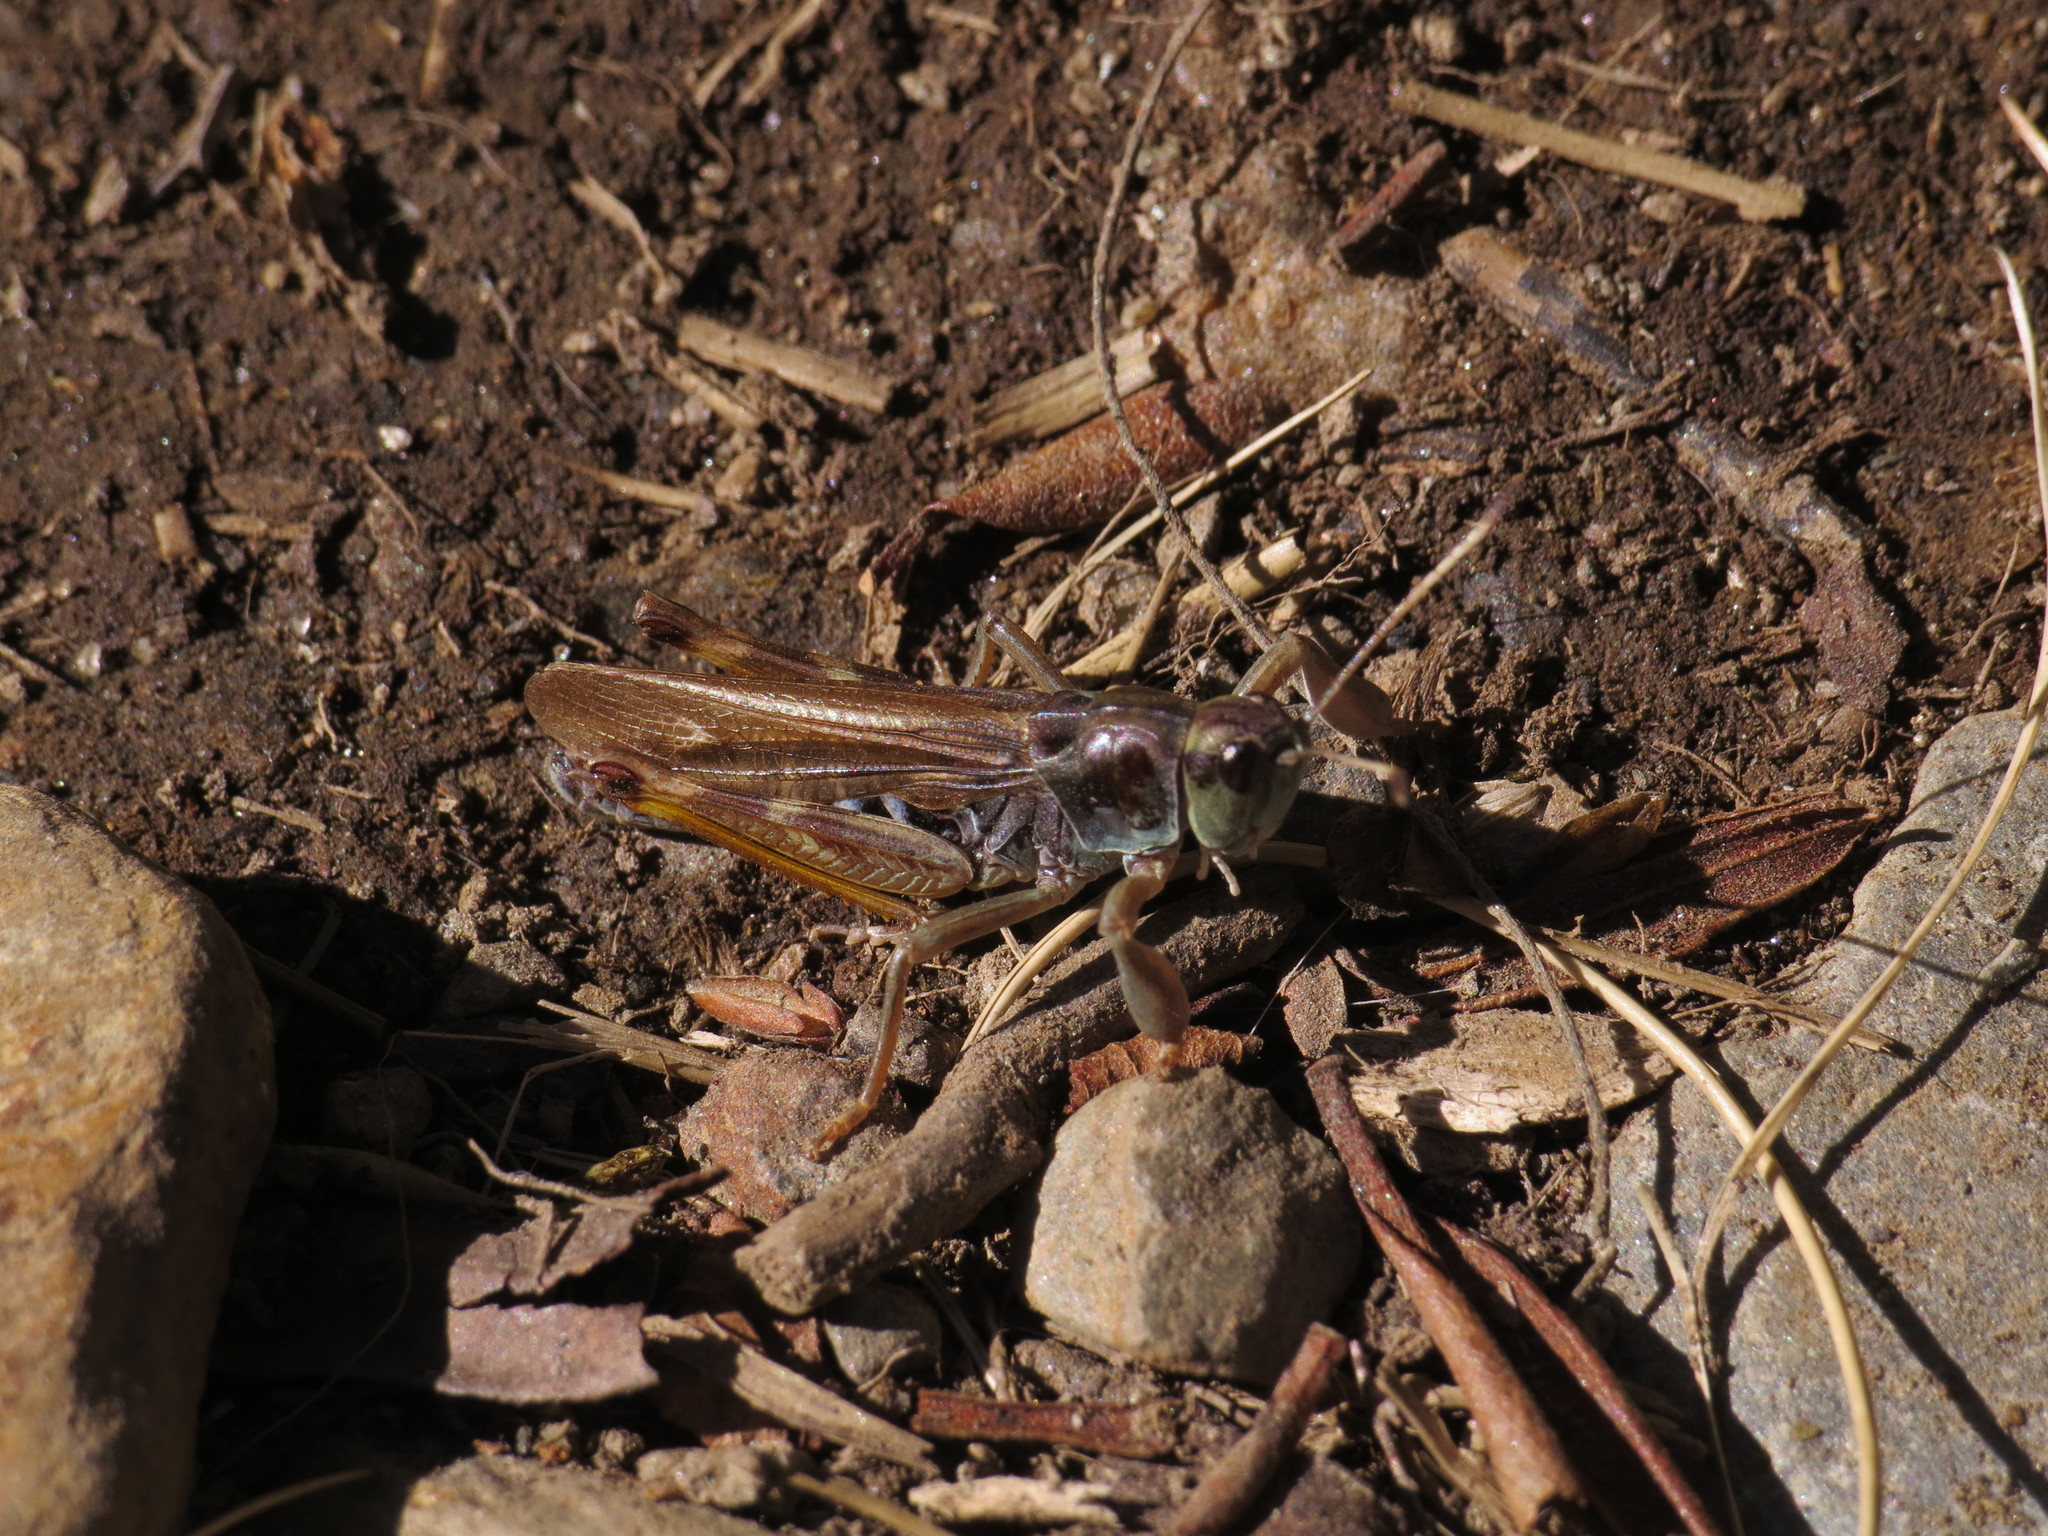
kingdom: Animalia
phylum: Arthropoda
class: Insecta
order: Orthoptera
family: Acrididae
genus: Gomphocerus
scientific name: Gomphocerus sibiricus
